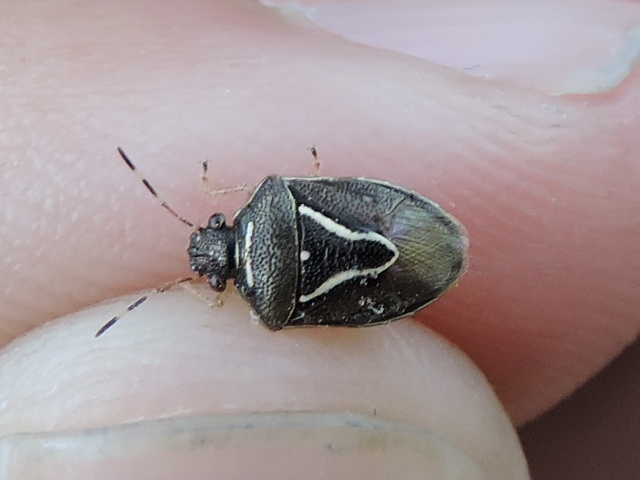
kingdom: Animalia
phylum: Arthropoda
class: Insecta
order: Hemiptera
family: Pentatomidae
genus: Mormidea
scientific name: Mormidea lugens
